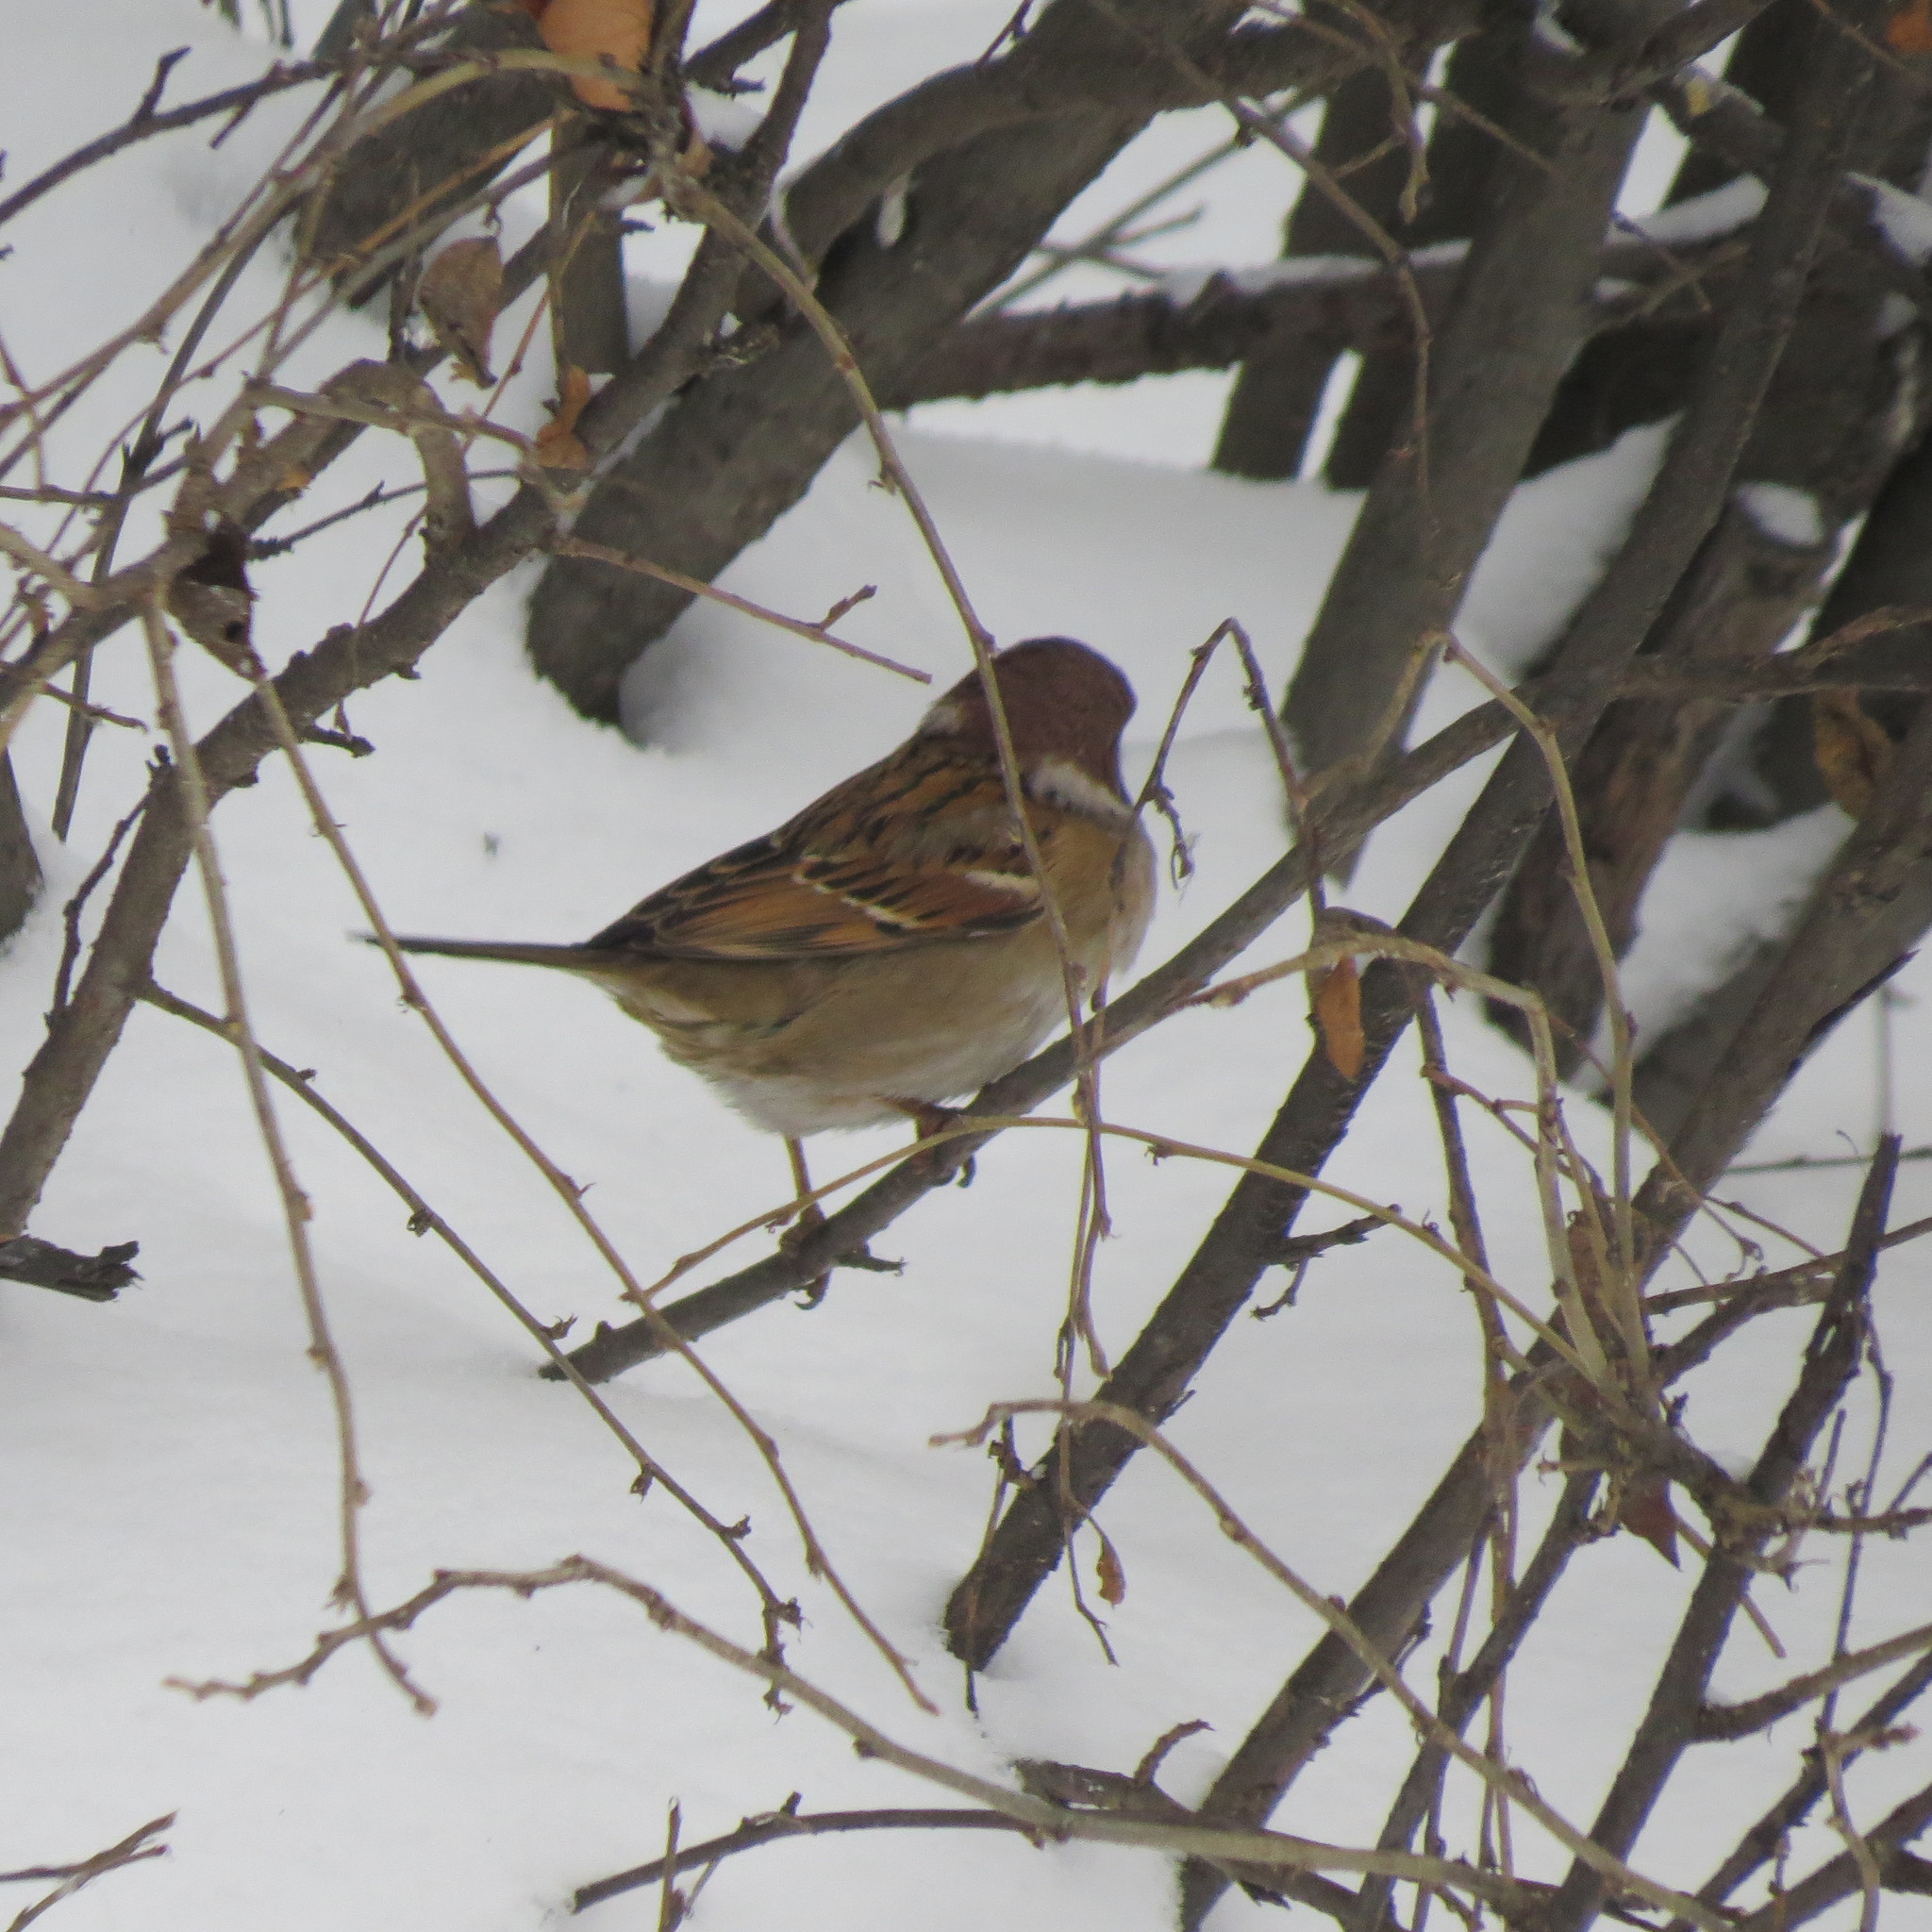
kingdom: Animalia
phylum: Chordata
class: Aves
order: Passeriformes
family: Passeridae
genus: Passer
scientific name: Passer montanus
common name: Eurasian tree sparrow
